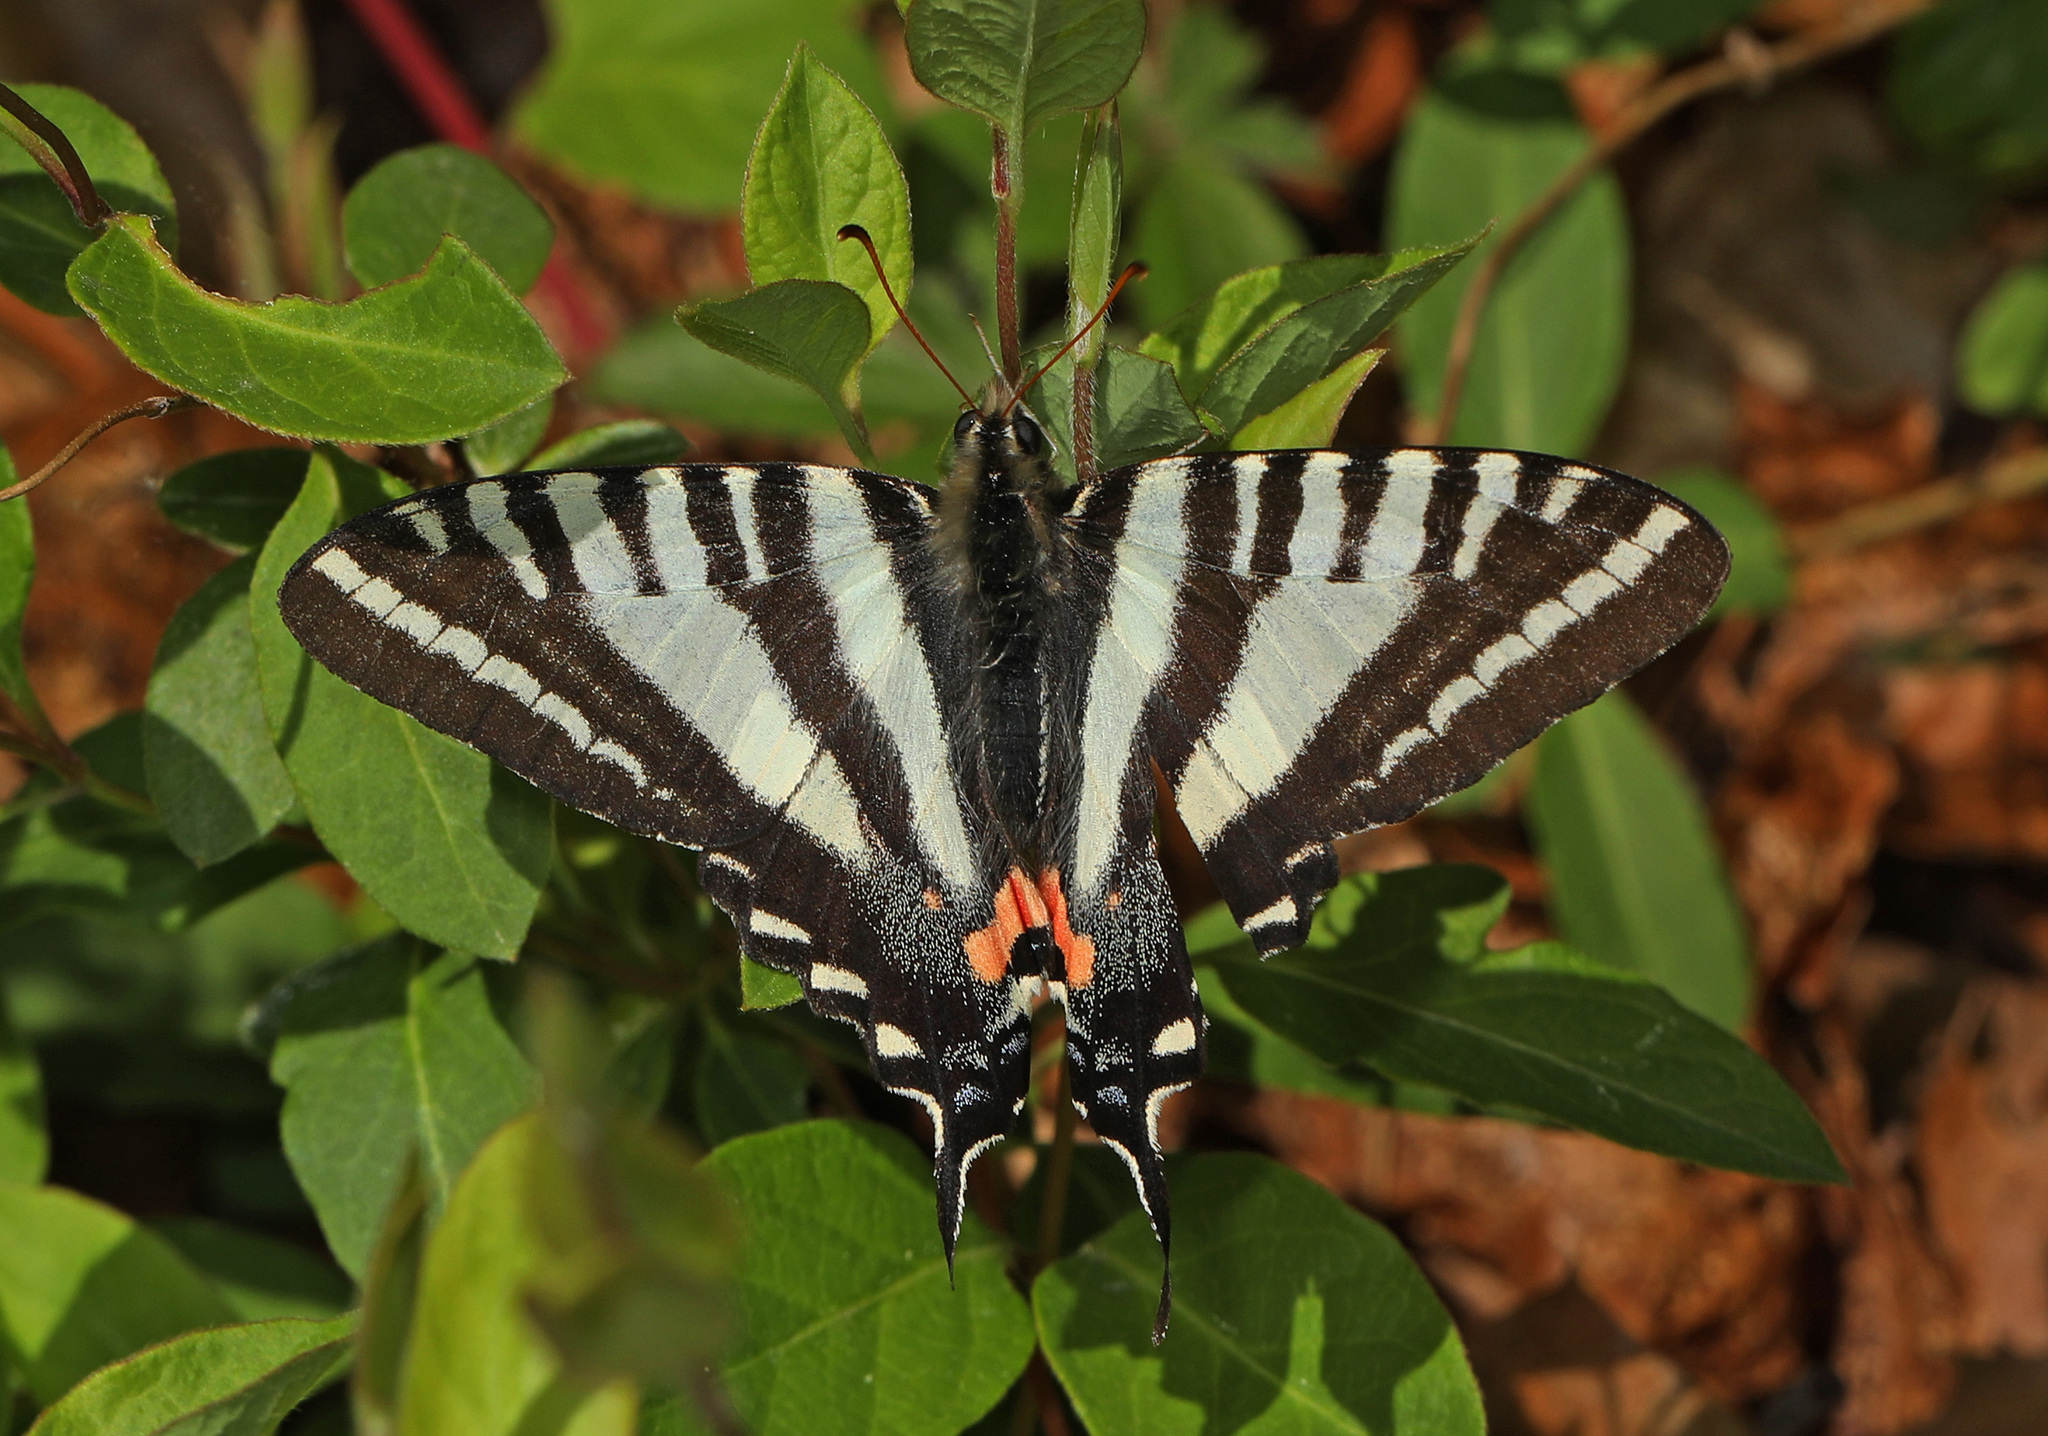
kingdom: Animalia
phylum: Arthropoda
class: Insecta
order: Lepidoptera
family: Papilionidae
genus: Protographium
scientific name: Protographium marcellus
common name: Zebra swallowtail
